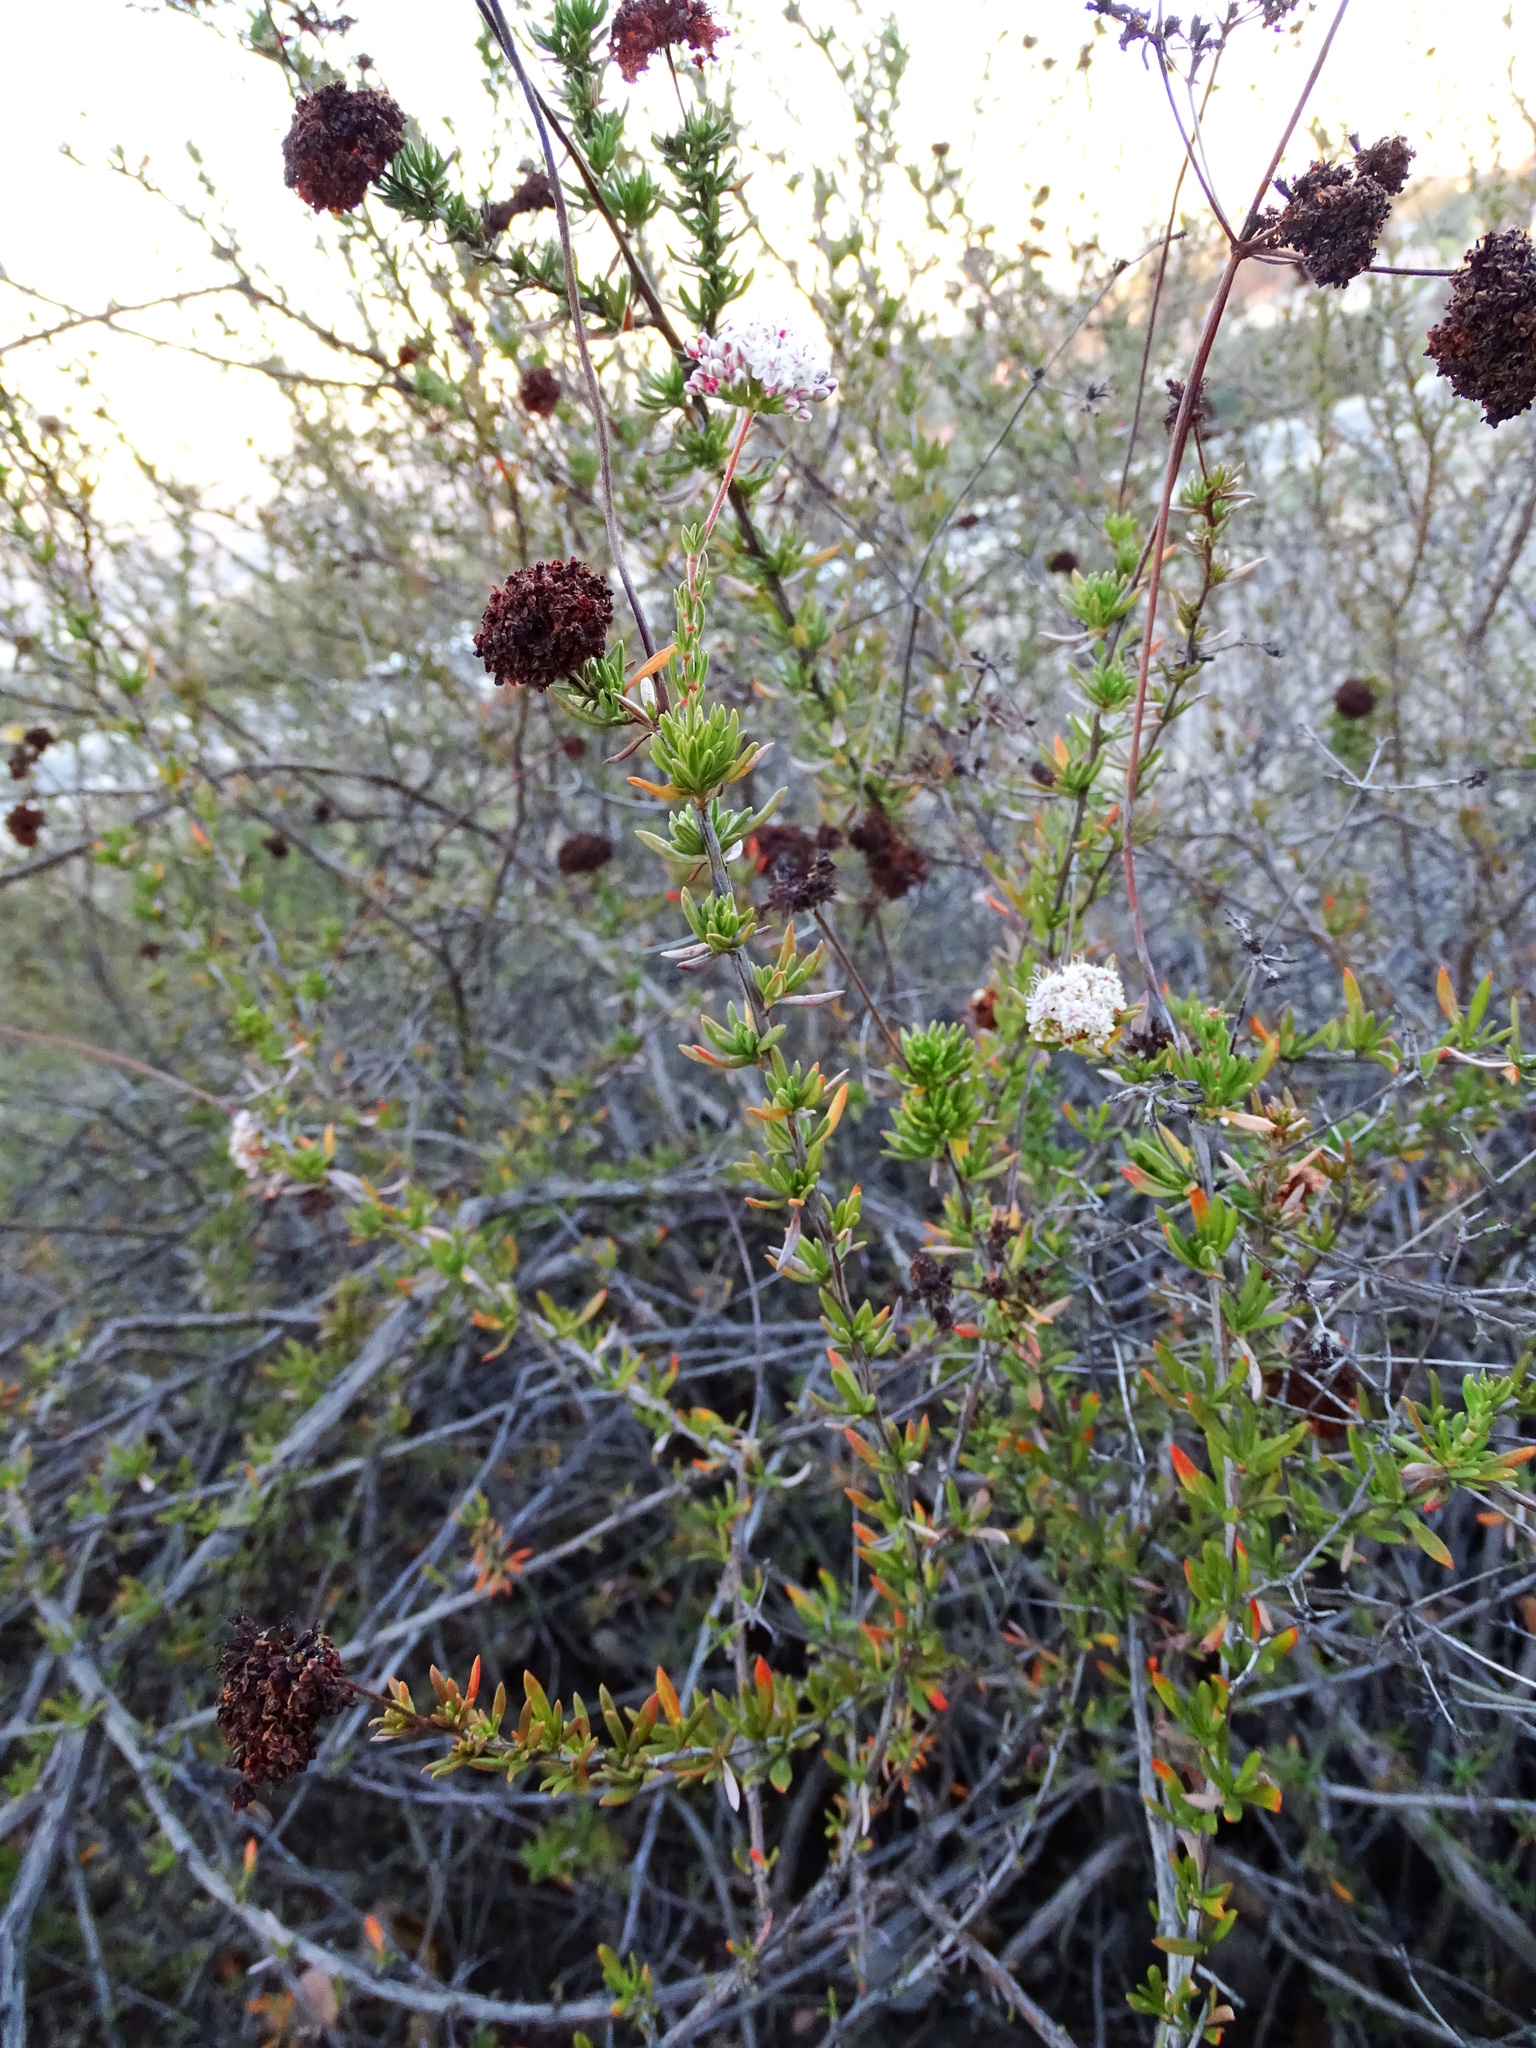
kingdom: Plantae
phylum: Tracheophyta
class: Magnoliopsida
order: Caryophyllales
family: Polygonaceae
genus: Eriogonum
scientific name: Eriogonum fasciculatum
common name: California wild buckwheat
